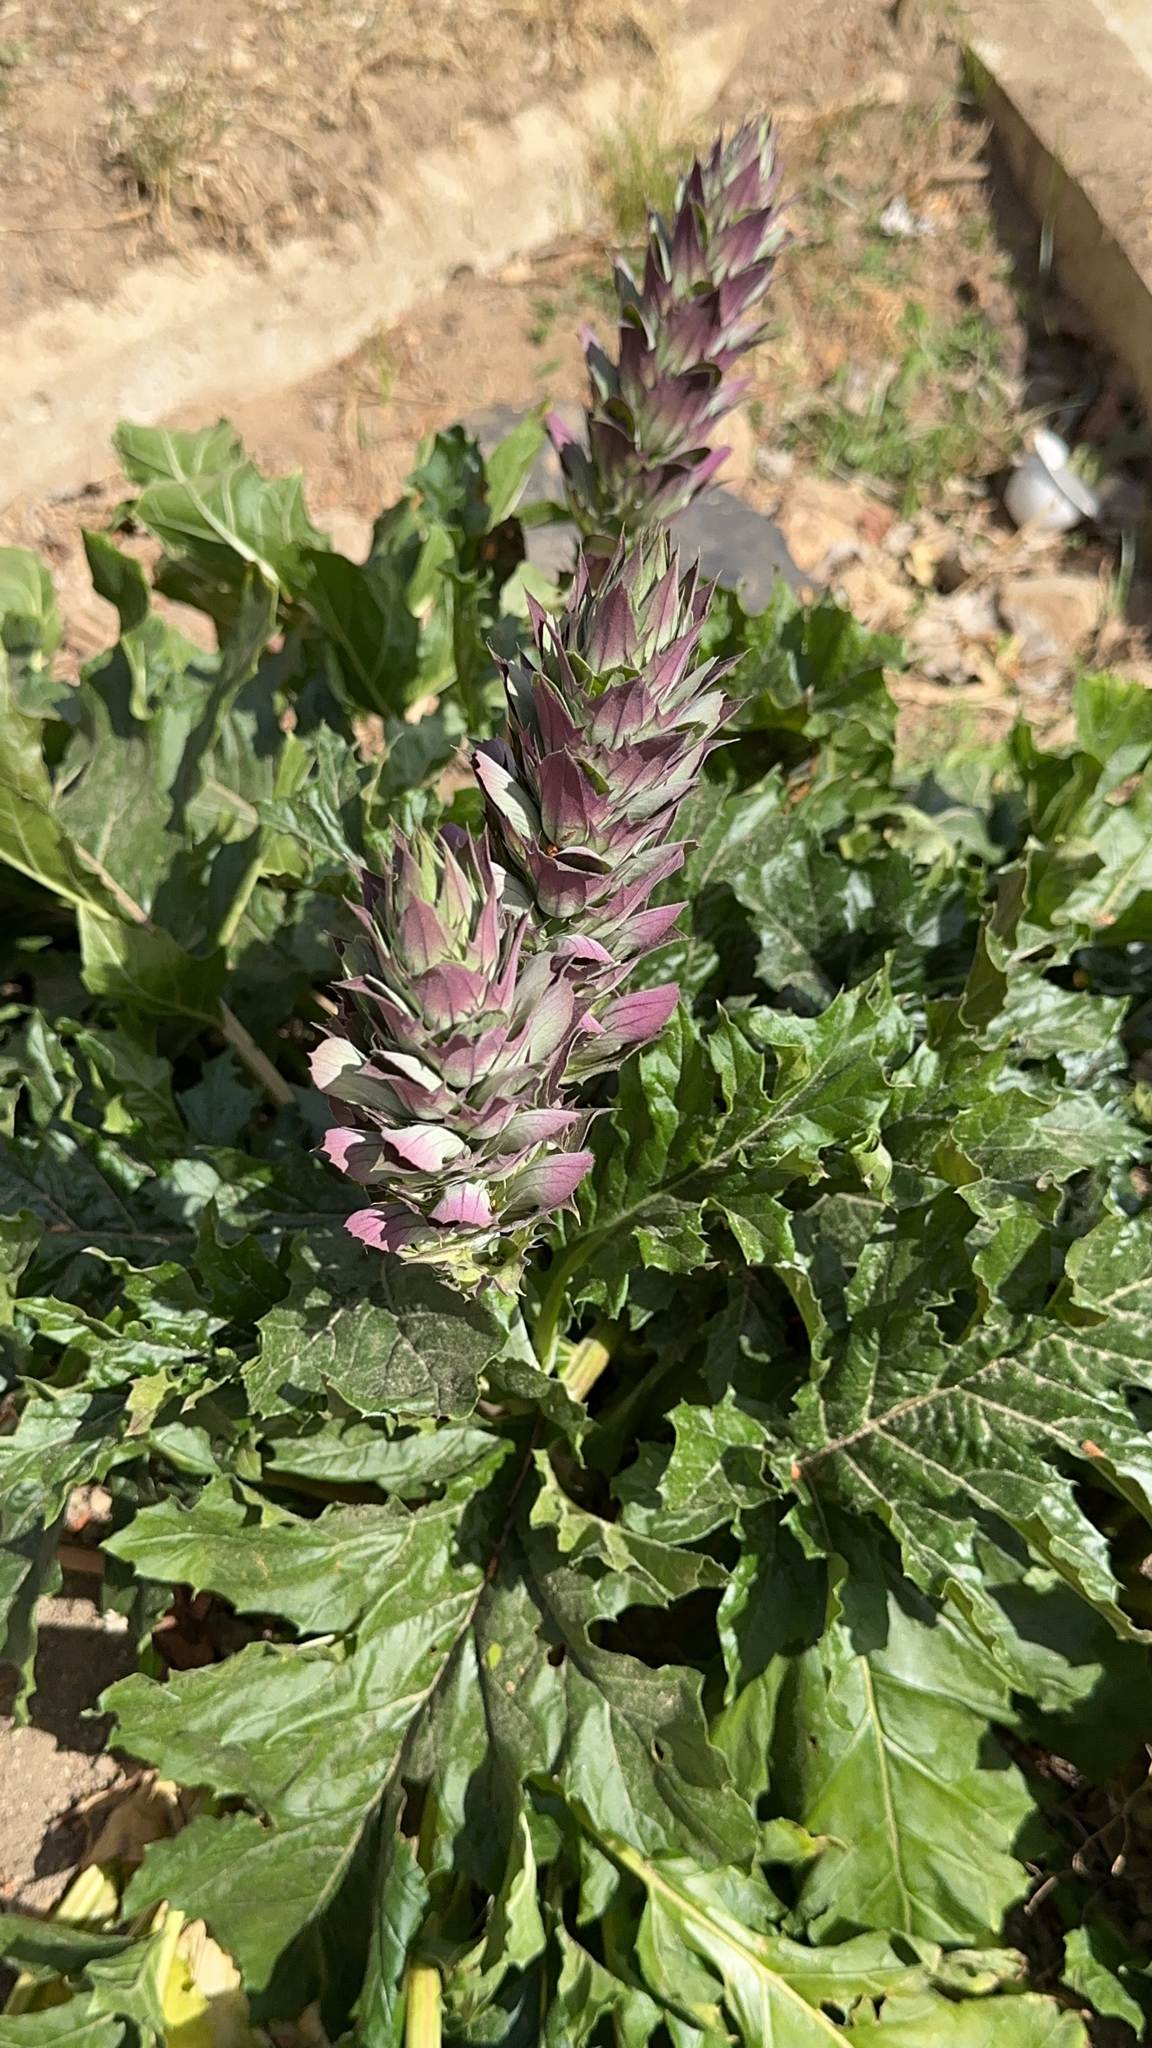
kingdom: Plantae
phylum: Tracheophyta
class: Magnoliopsida
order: Lamiales
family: Acanthaceae
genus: Acanthus
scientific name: Acanthus mollis
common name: Bear's-breech
